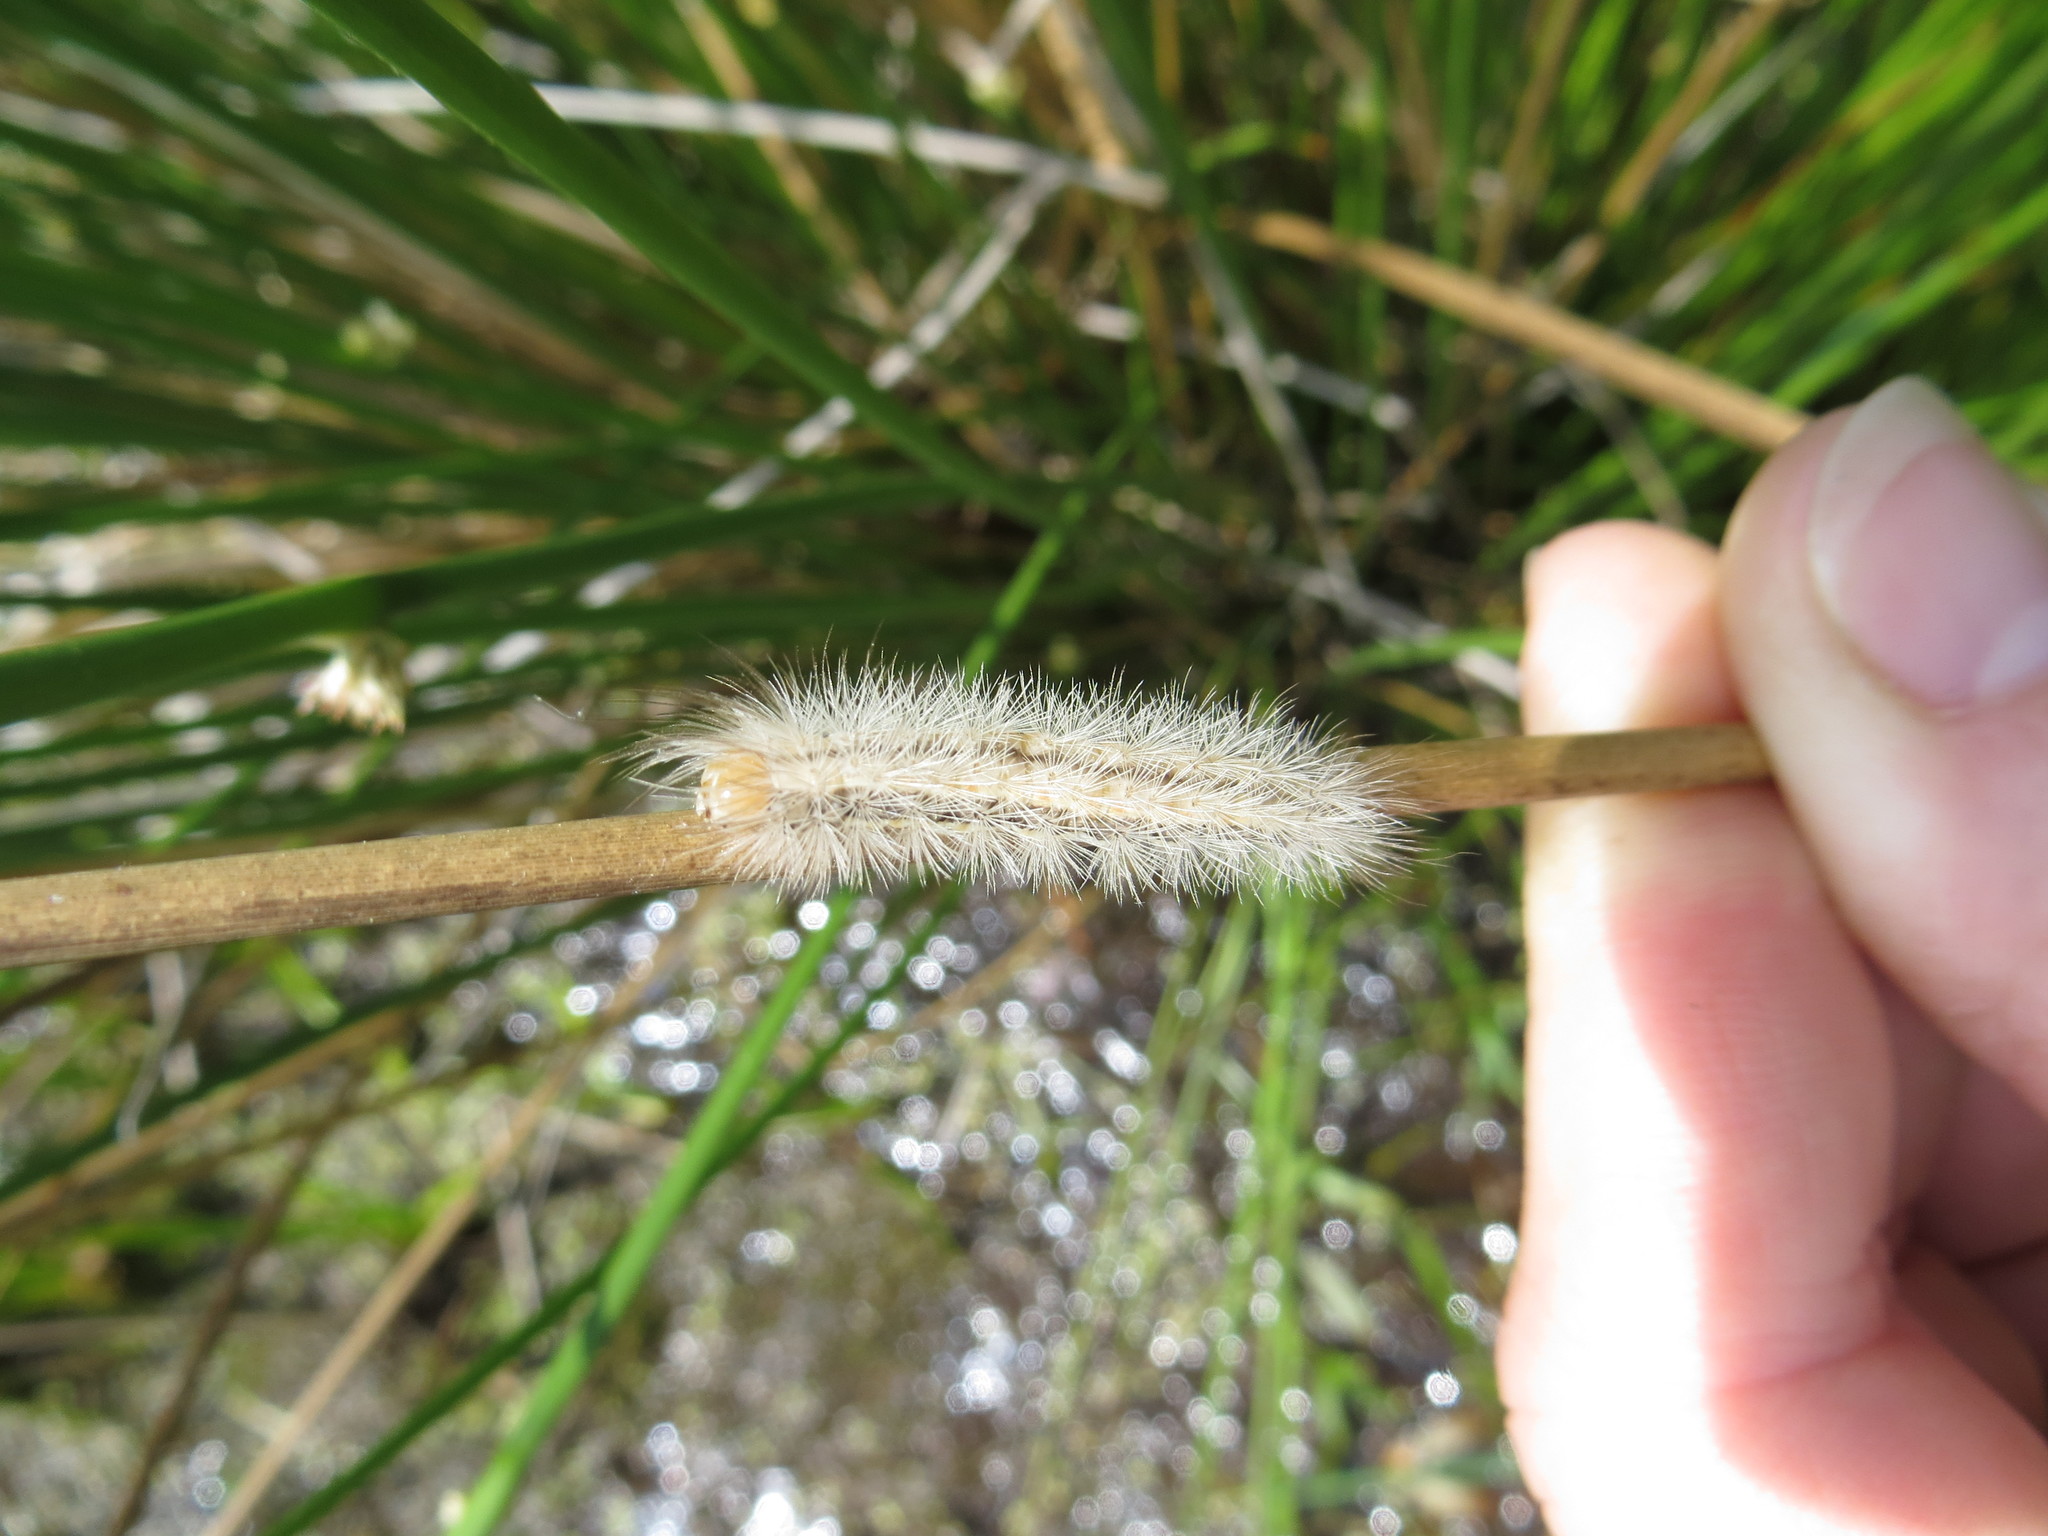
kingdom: Animalia
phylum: Arthropoda
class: Insecta
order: Lepidoptera
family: Erebidae
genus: Cisseps
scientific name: Cisseps fulvicollis
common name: Yellow-collared scape moth
